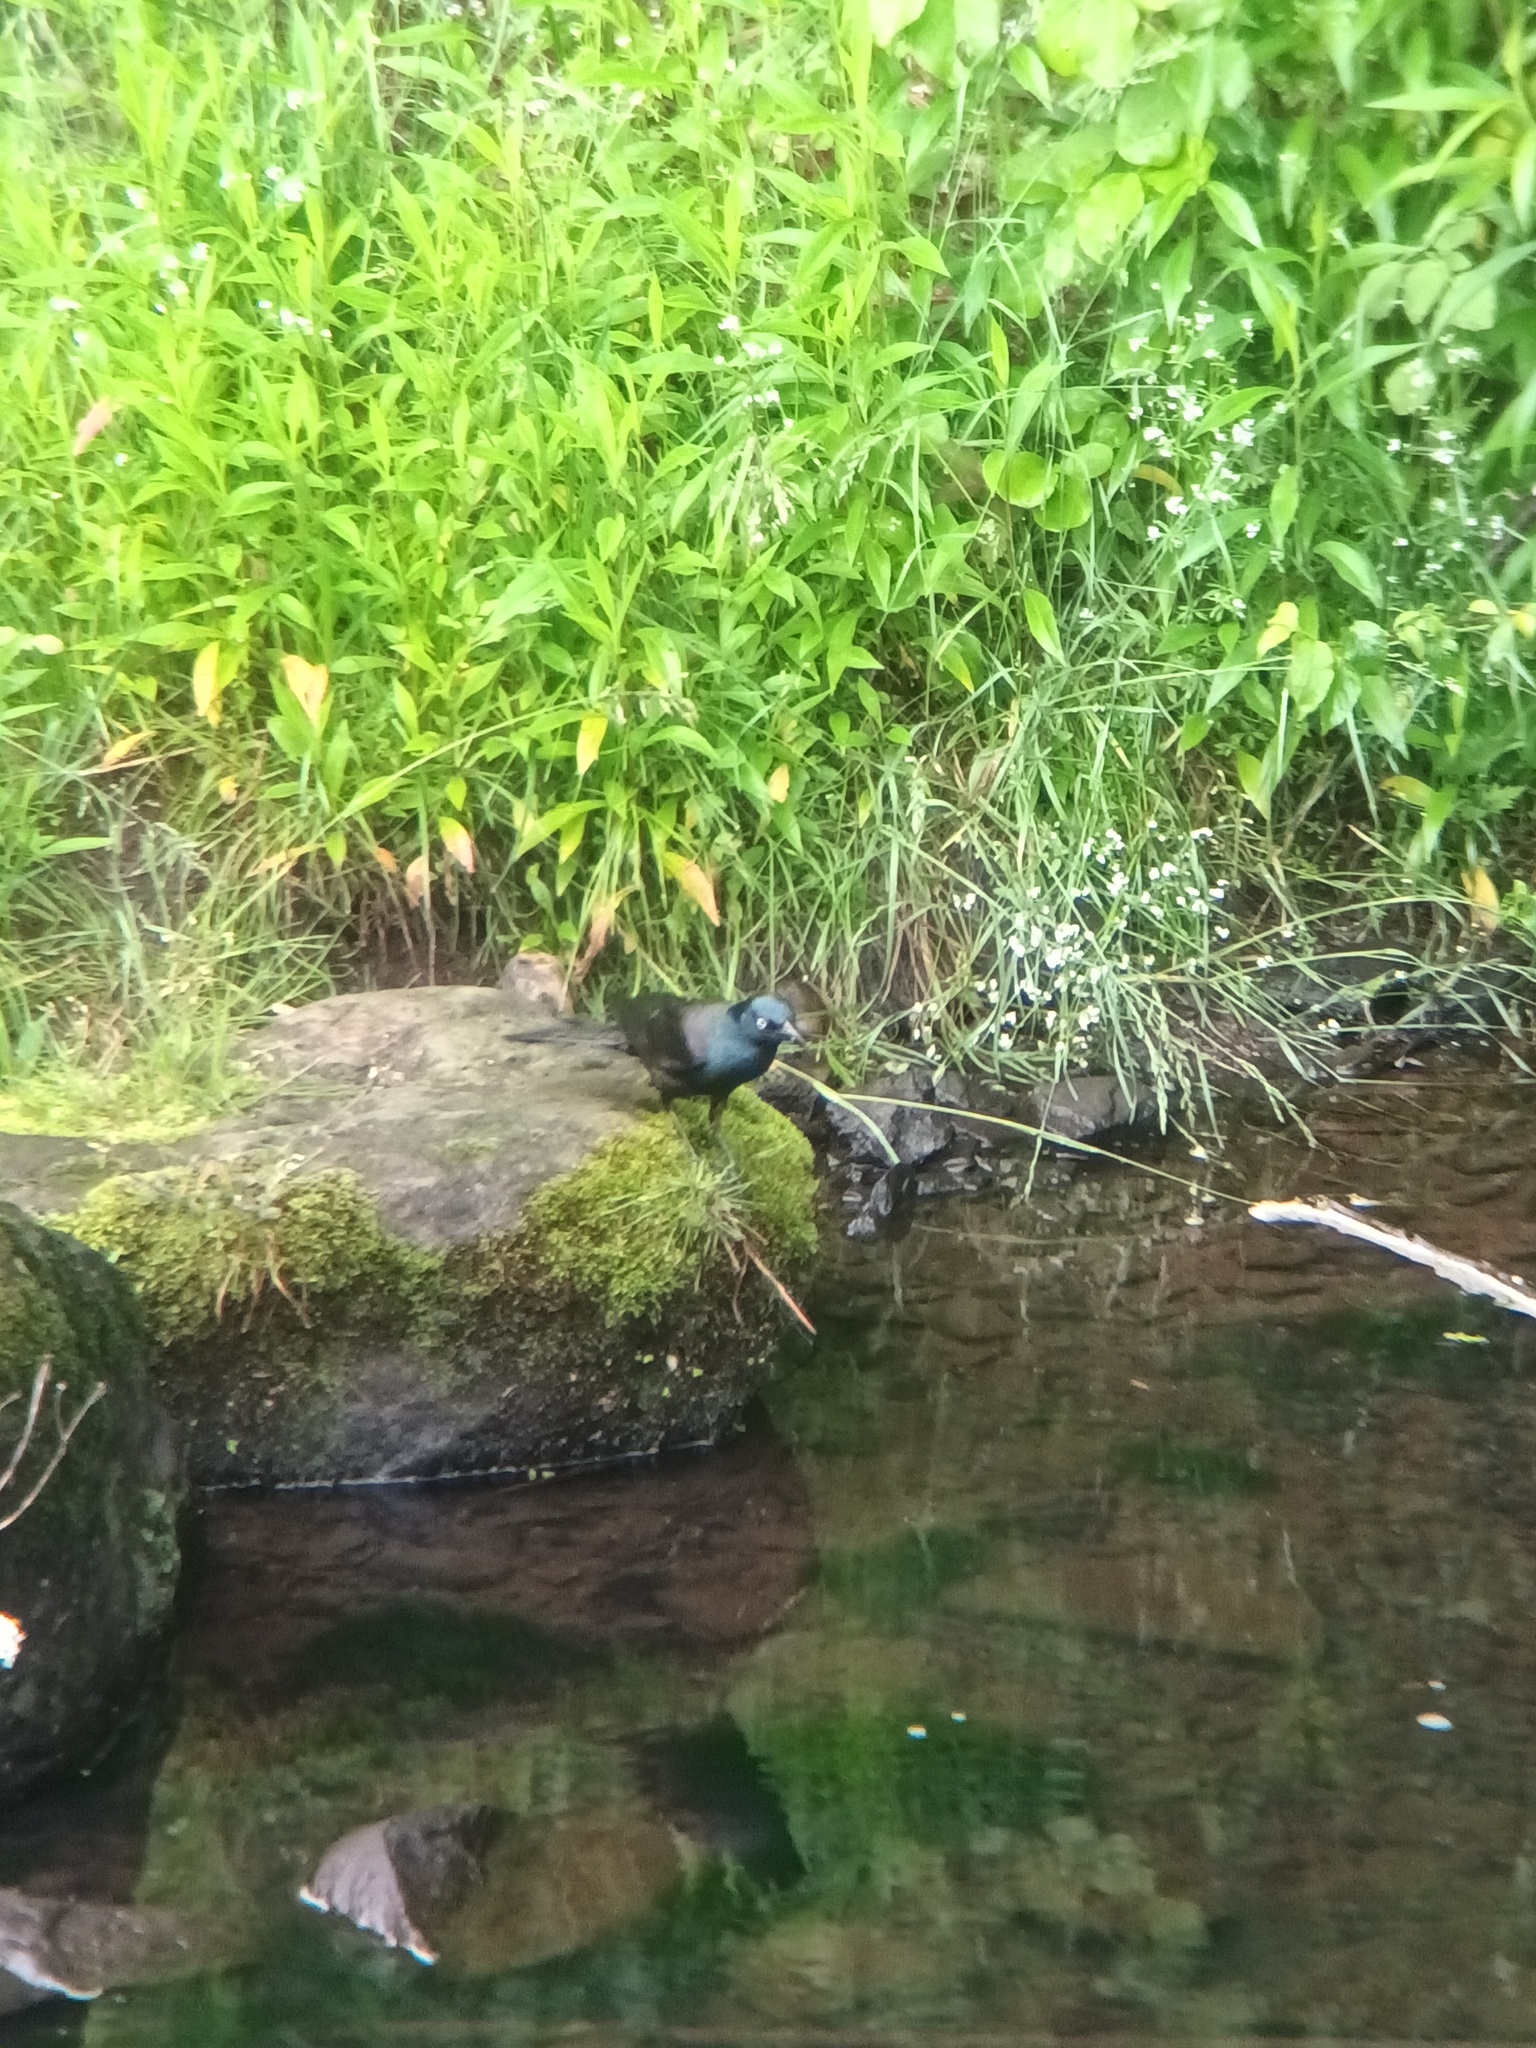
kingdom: Animalia
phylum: Chordata
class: Aves
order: Passeriformes
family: Icteridae
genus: Quiscalus
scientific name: Quiscalus quiscula
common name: Common grackle
